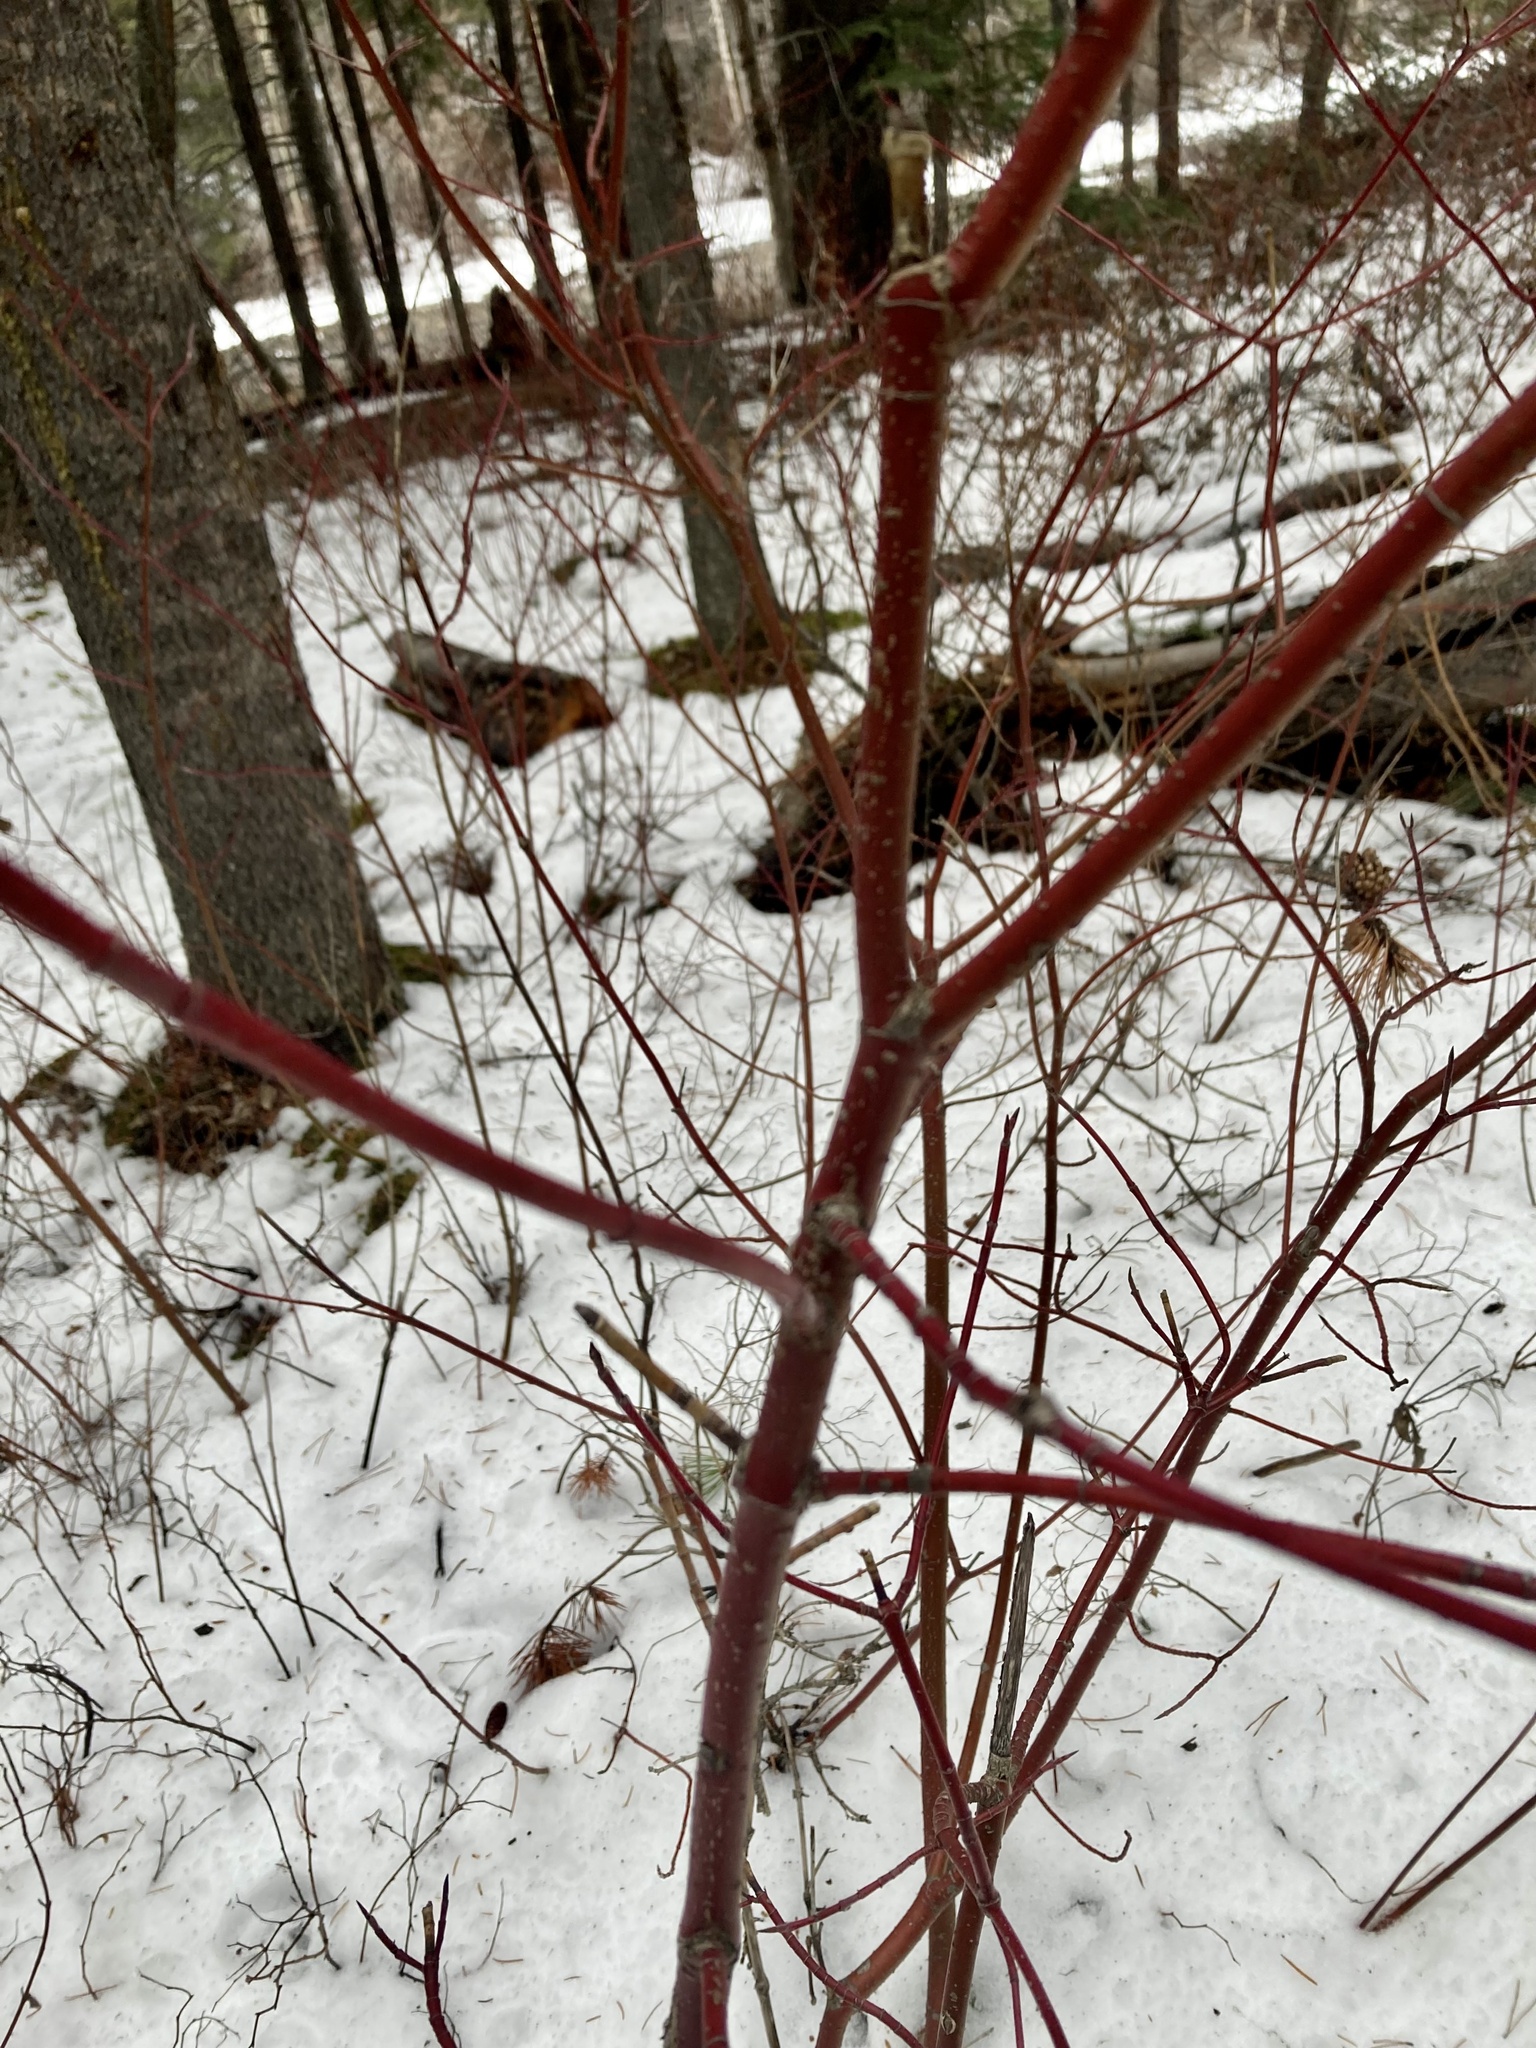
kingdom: Plantae
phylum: Tracheophyta
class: Magnoliopsida
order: Cornales
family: Cornaceae
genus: Cornus
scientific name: Cornus sericea
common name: Red-osier dogwood
